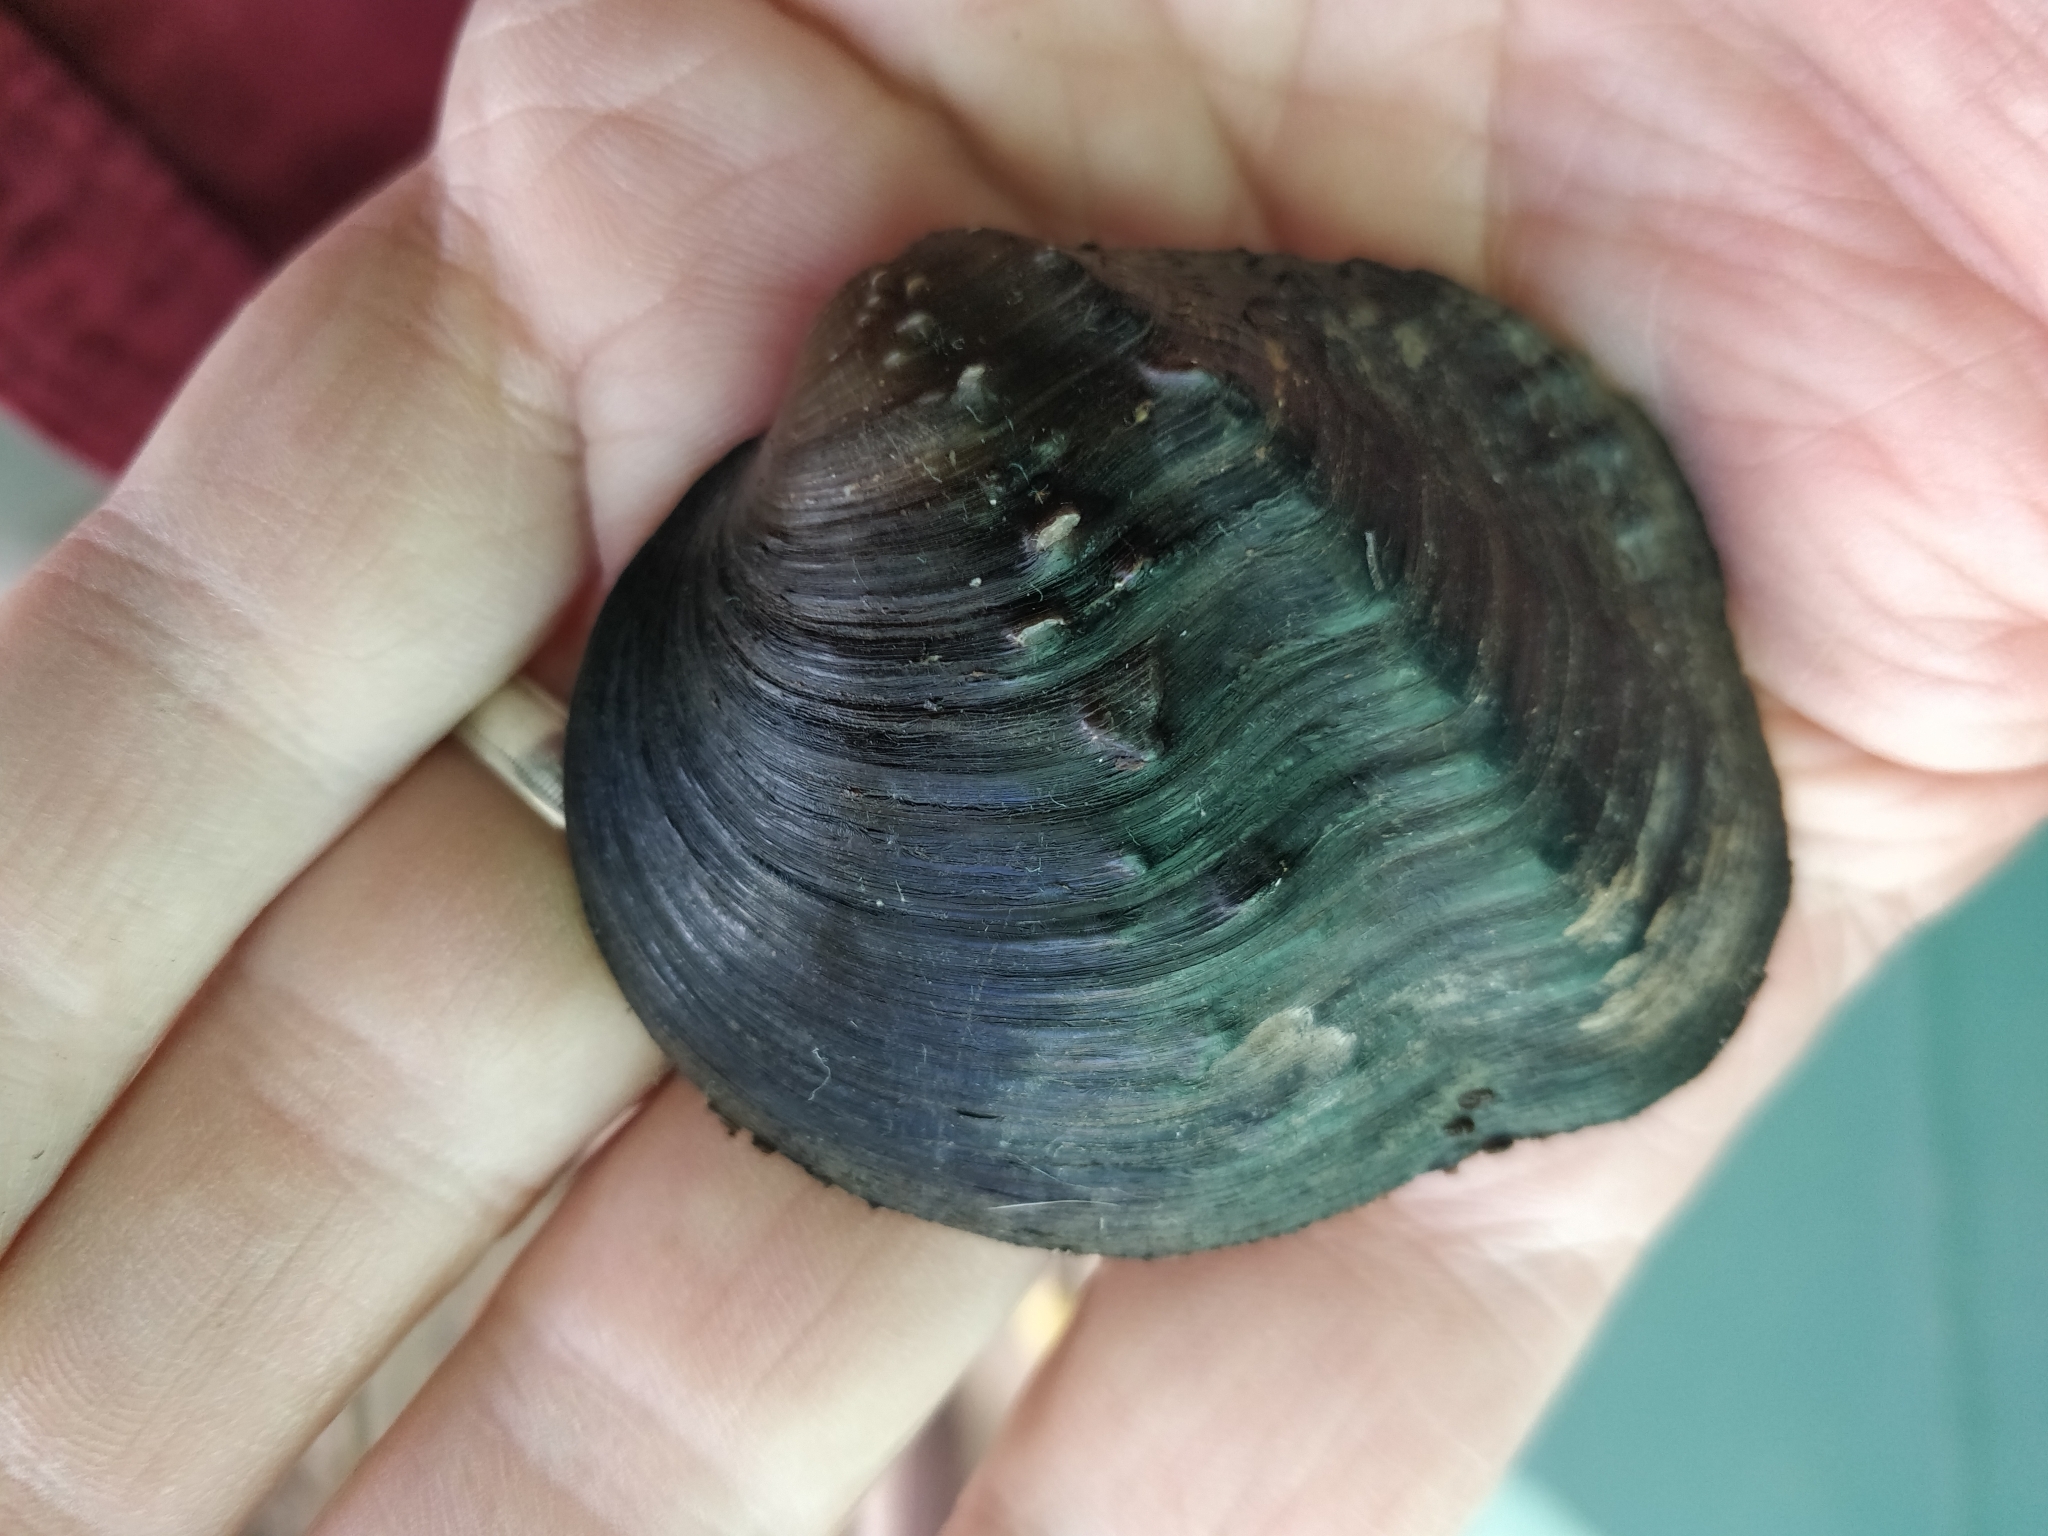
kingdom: Animalia
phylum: Mollusca
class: Bivalvia
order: Unionida
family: Unionidae
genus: Quadrula
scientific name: Quadrula quadrula
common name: Mapleleaf
